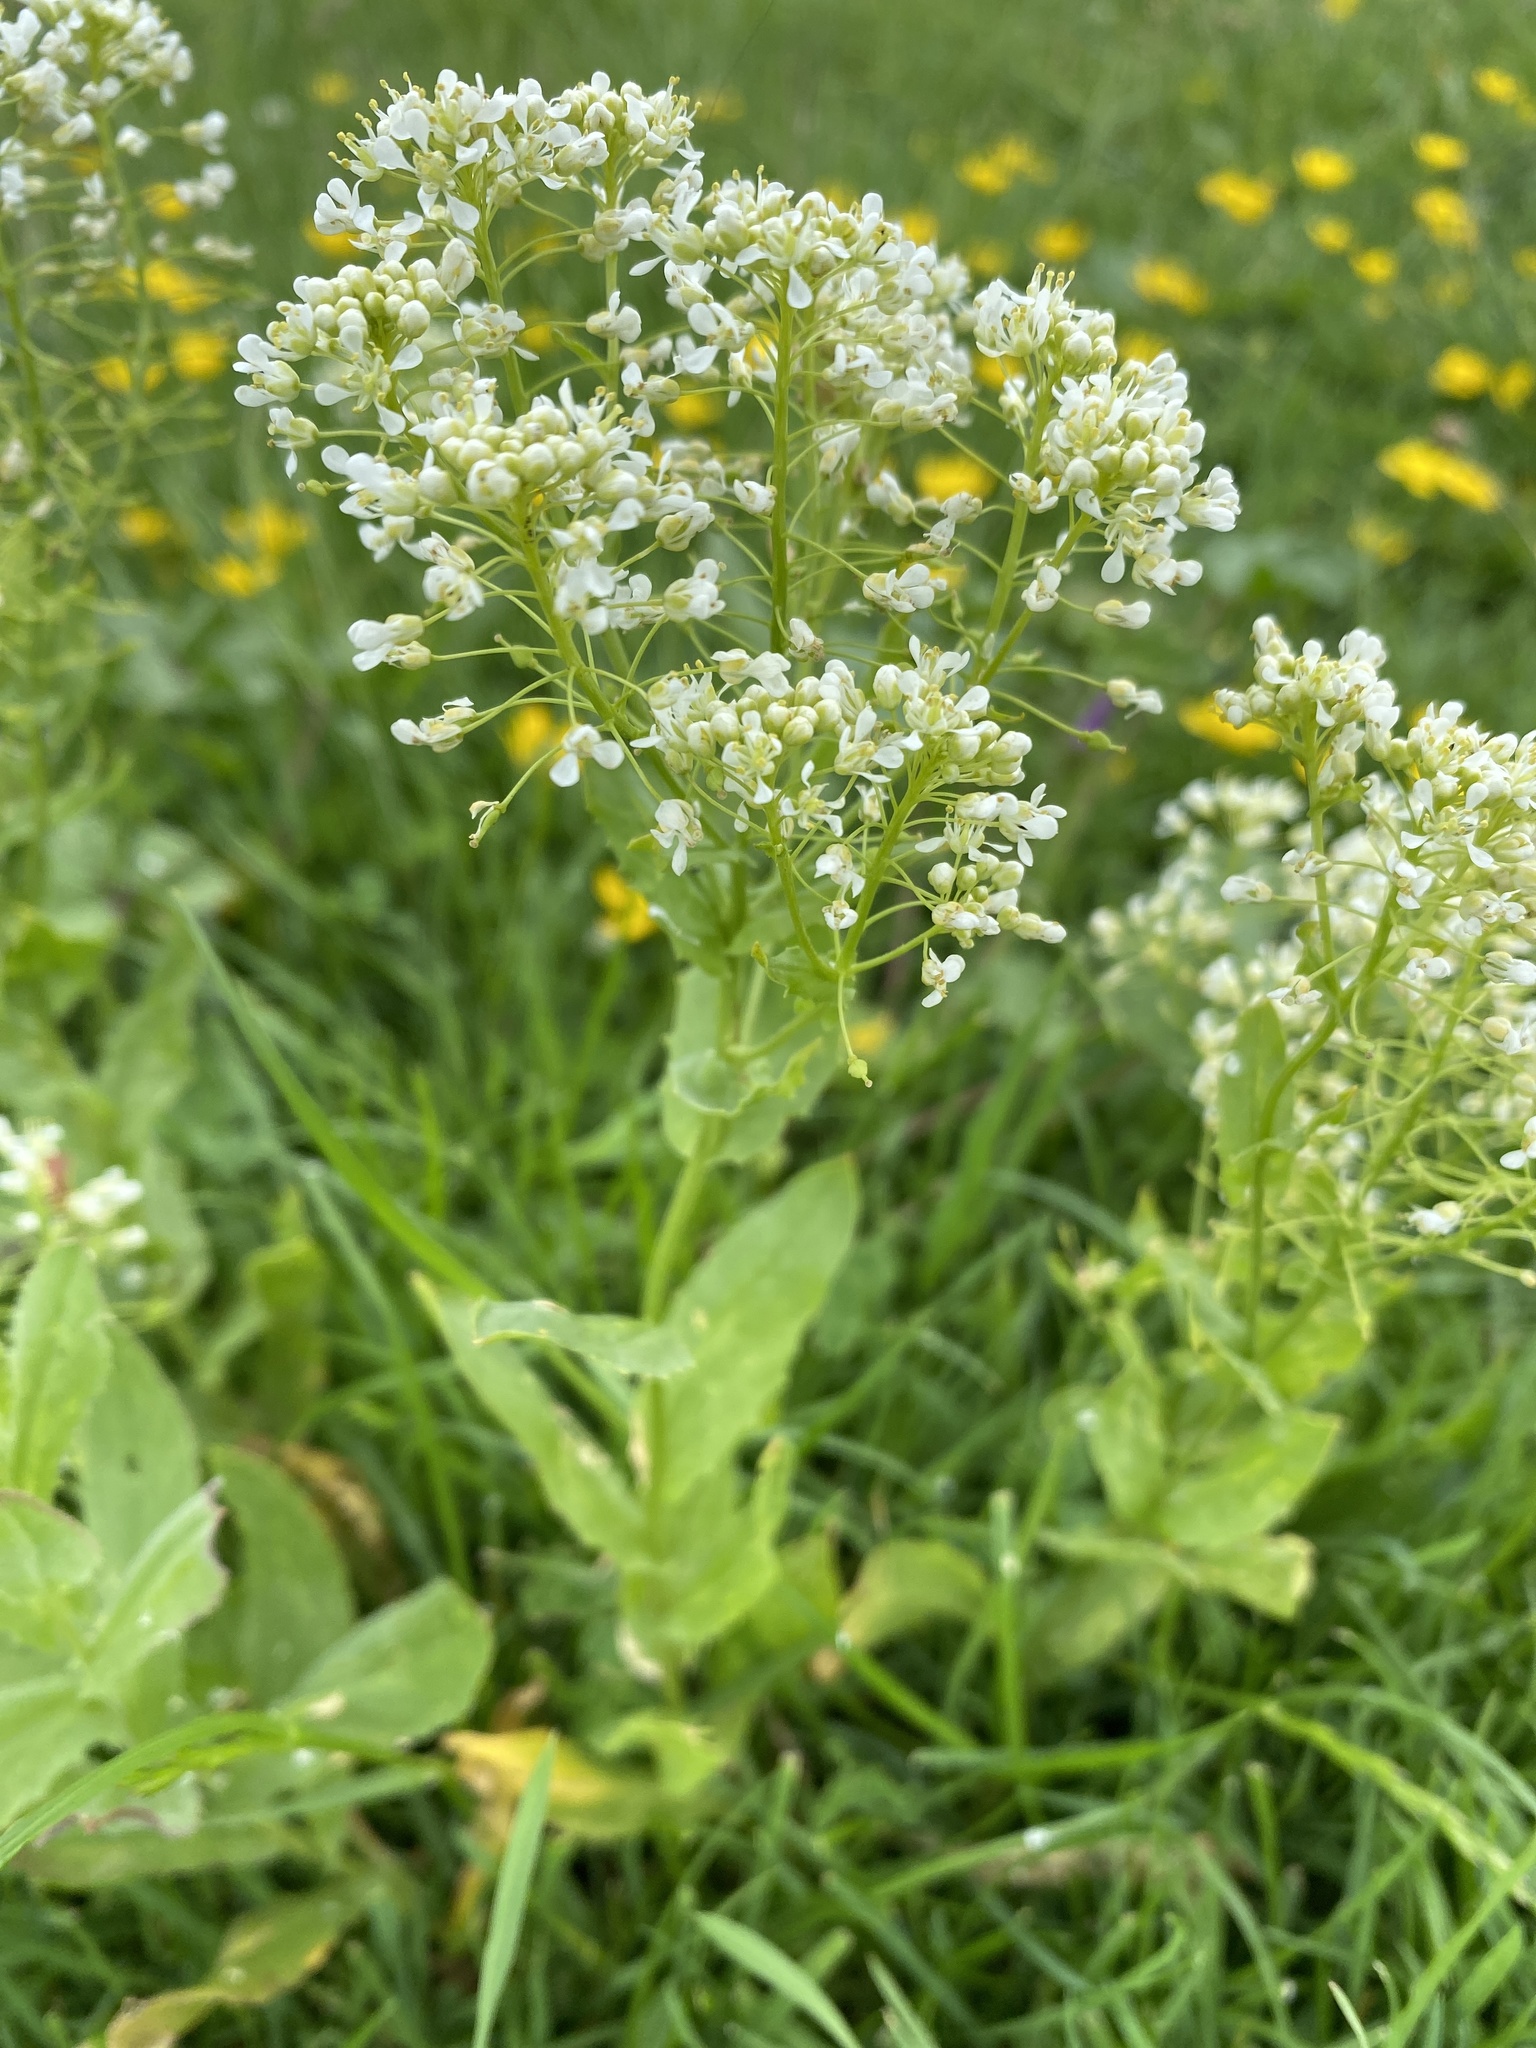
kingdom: Plantae
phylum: Tracheophyta
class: Magnoliopsida
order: Brassicales
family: Brassicaceae
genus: Lepidium
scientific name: Lepidium draba
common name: Hoary cress
